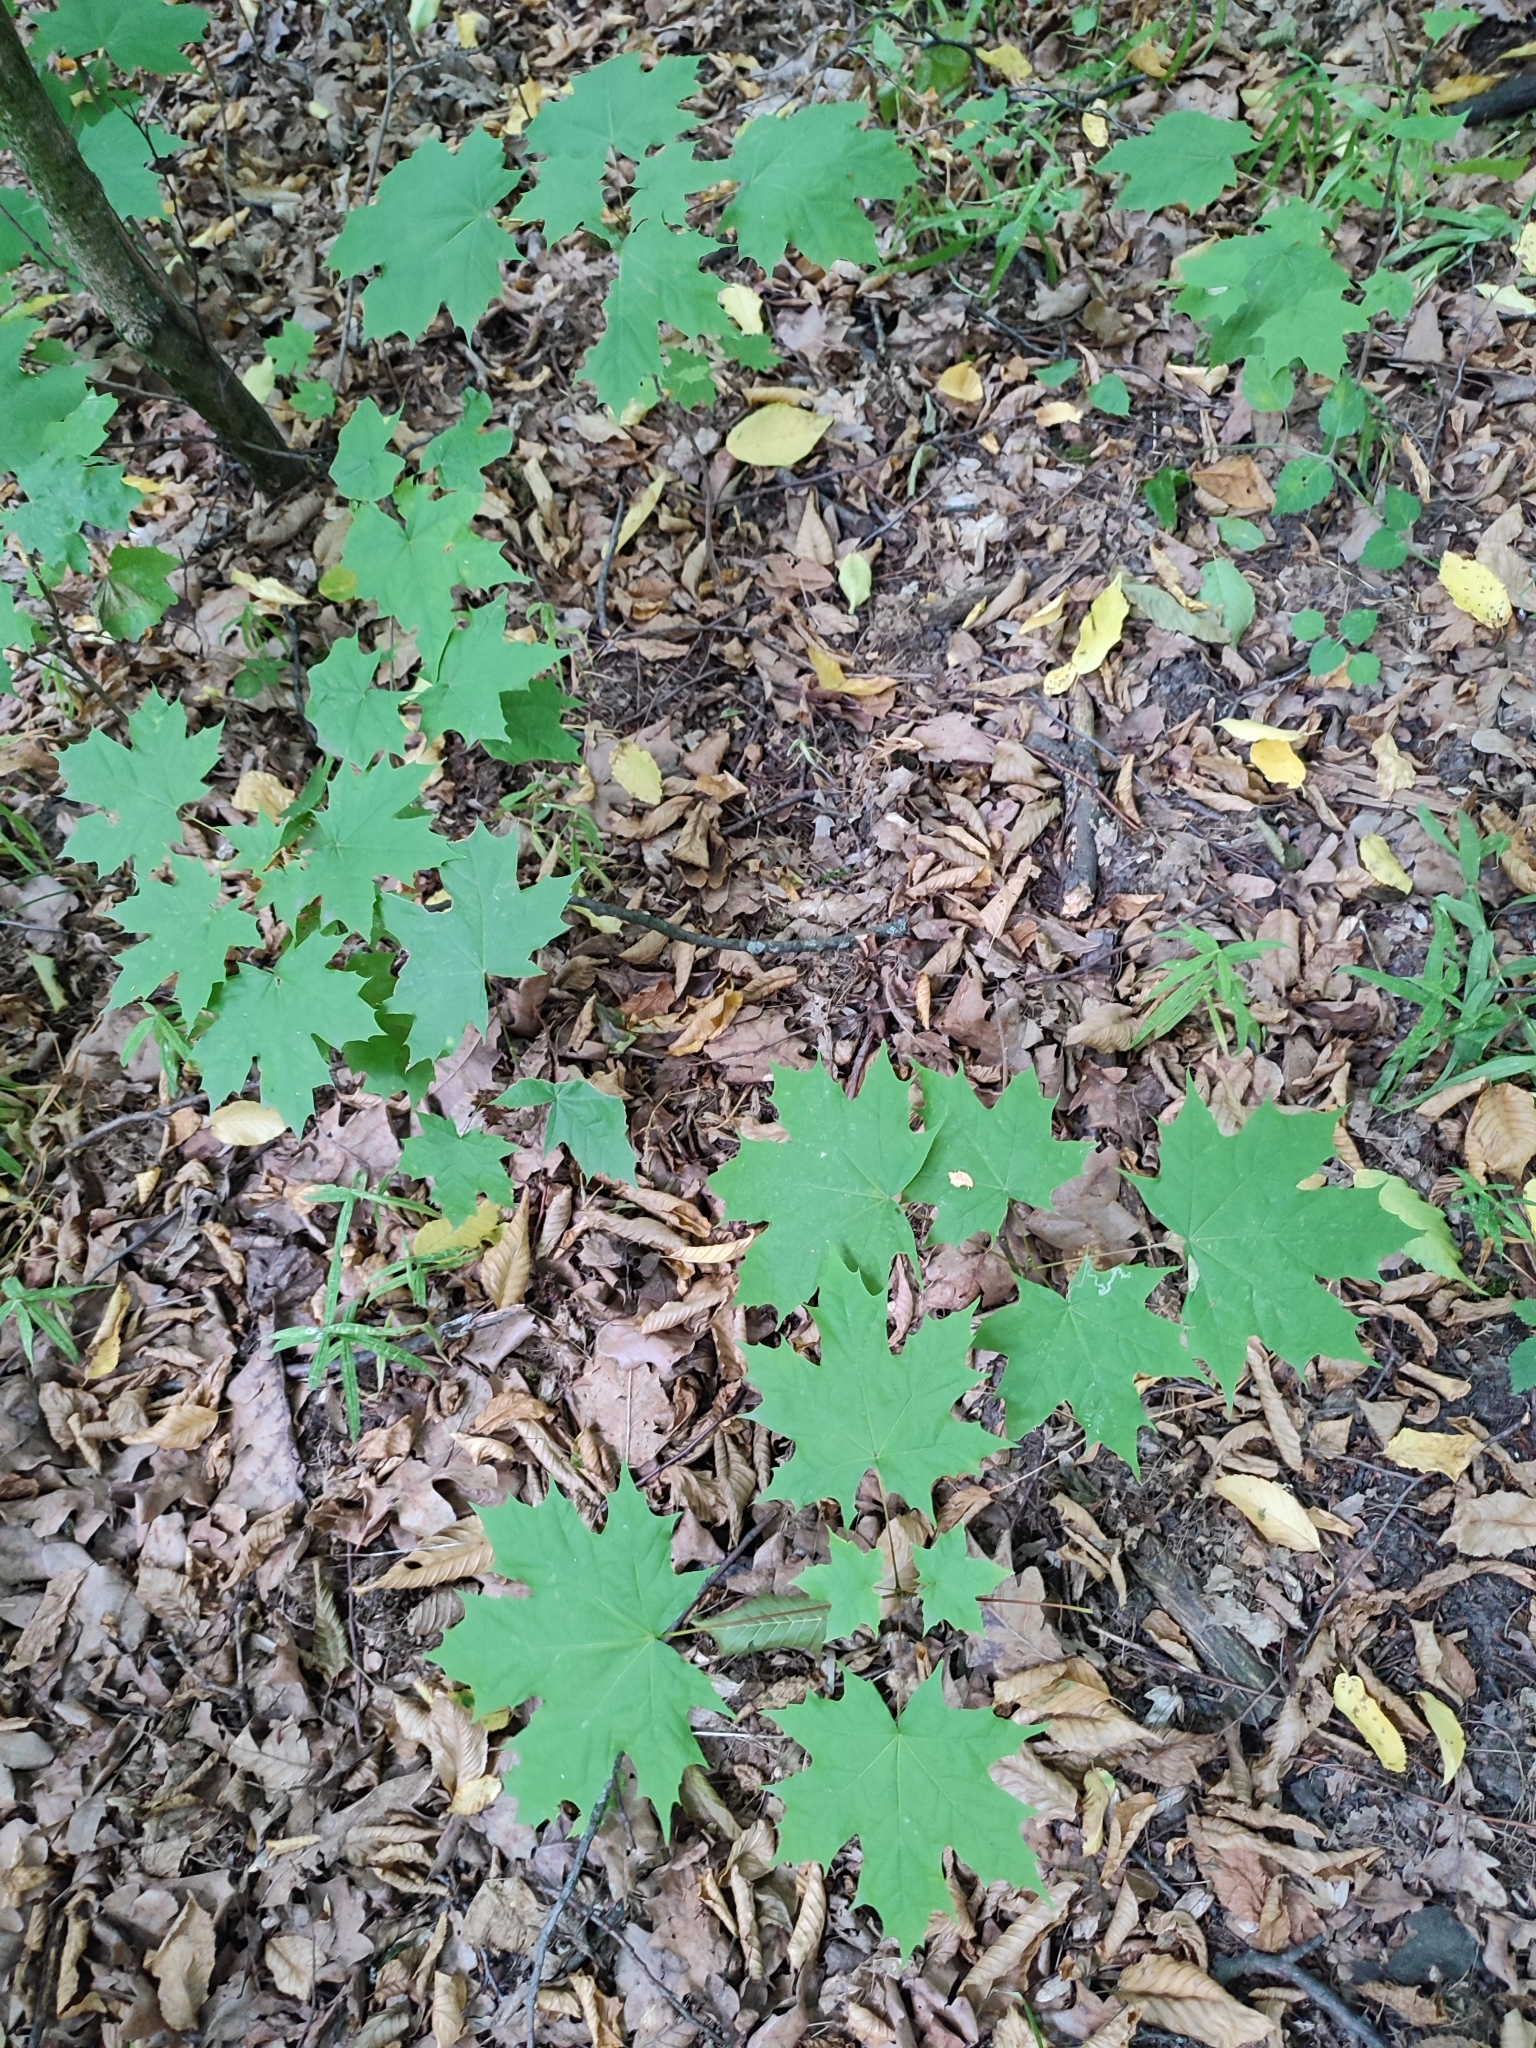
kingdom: Plantae
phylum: Tracheophyta
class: Magnoliopsida
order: Sapindales
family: Sapindaceae
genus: Acer
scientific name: Acer platanoides
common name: Norway maple
